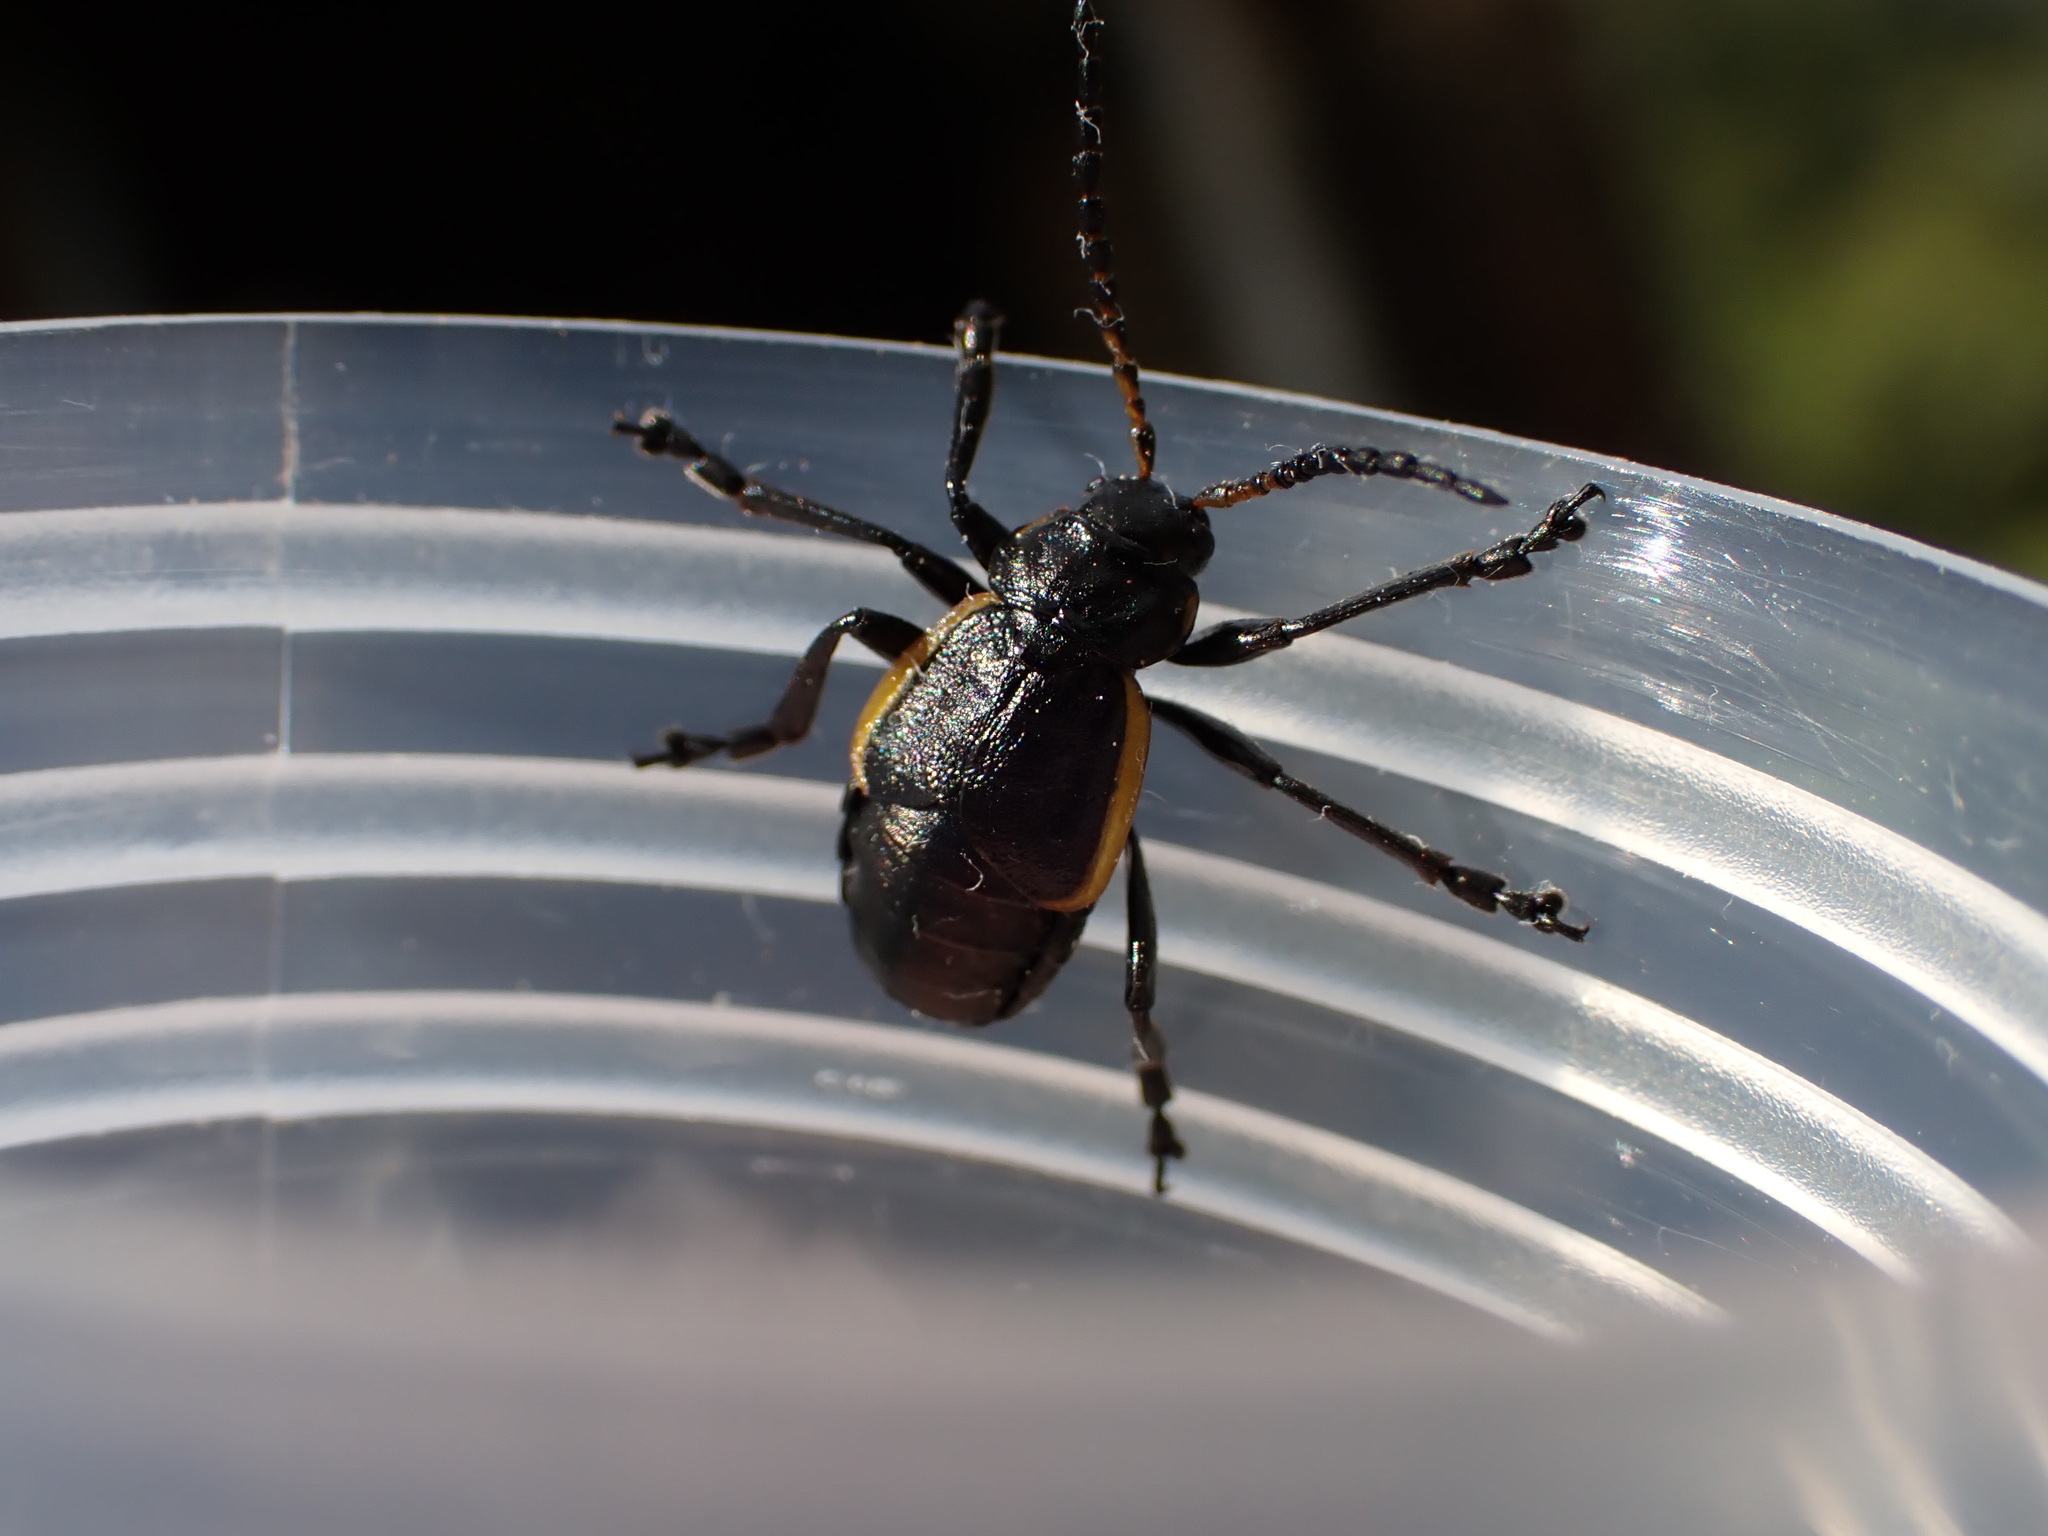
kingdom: Animalia
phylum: Arthropoda
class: Insecta
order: Coleoptera
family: Chrysomelidae
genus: Arima
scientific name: Arima marginata
